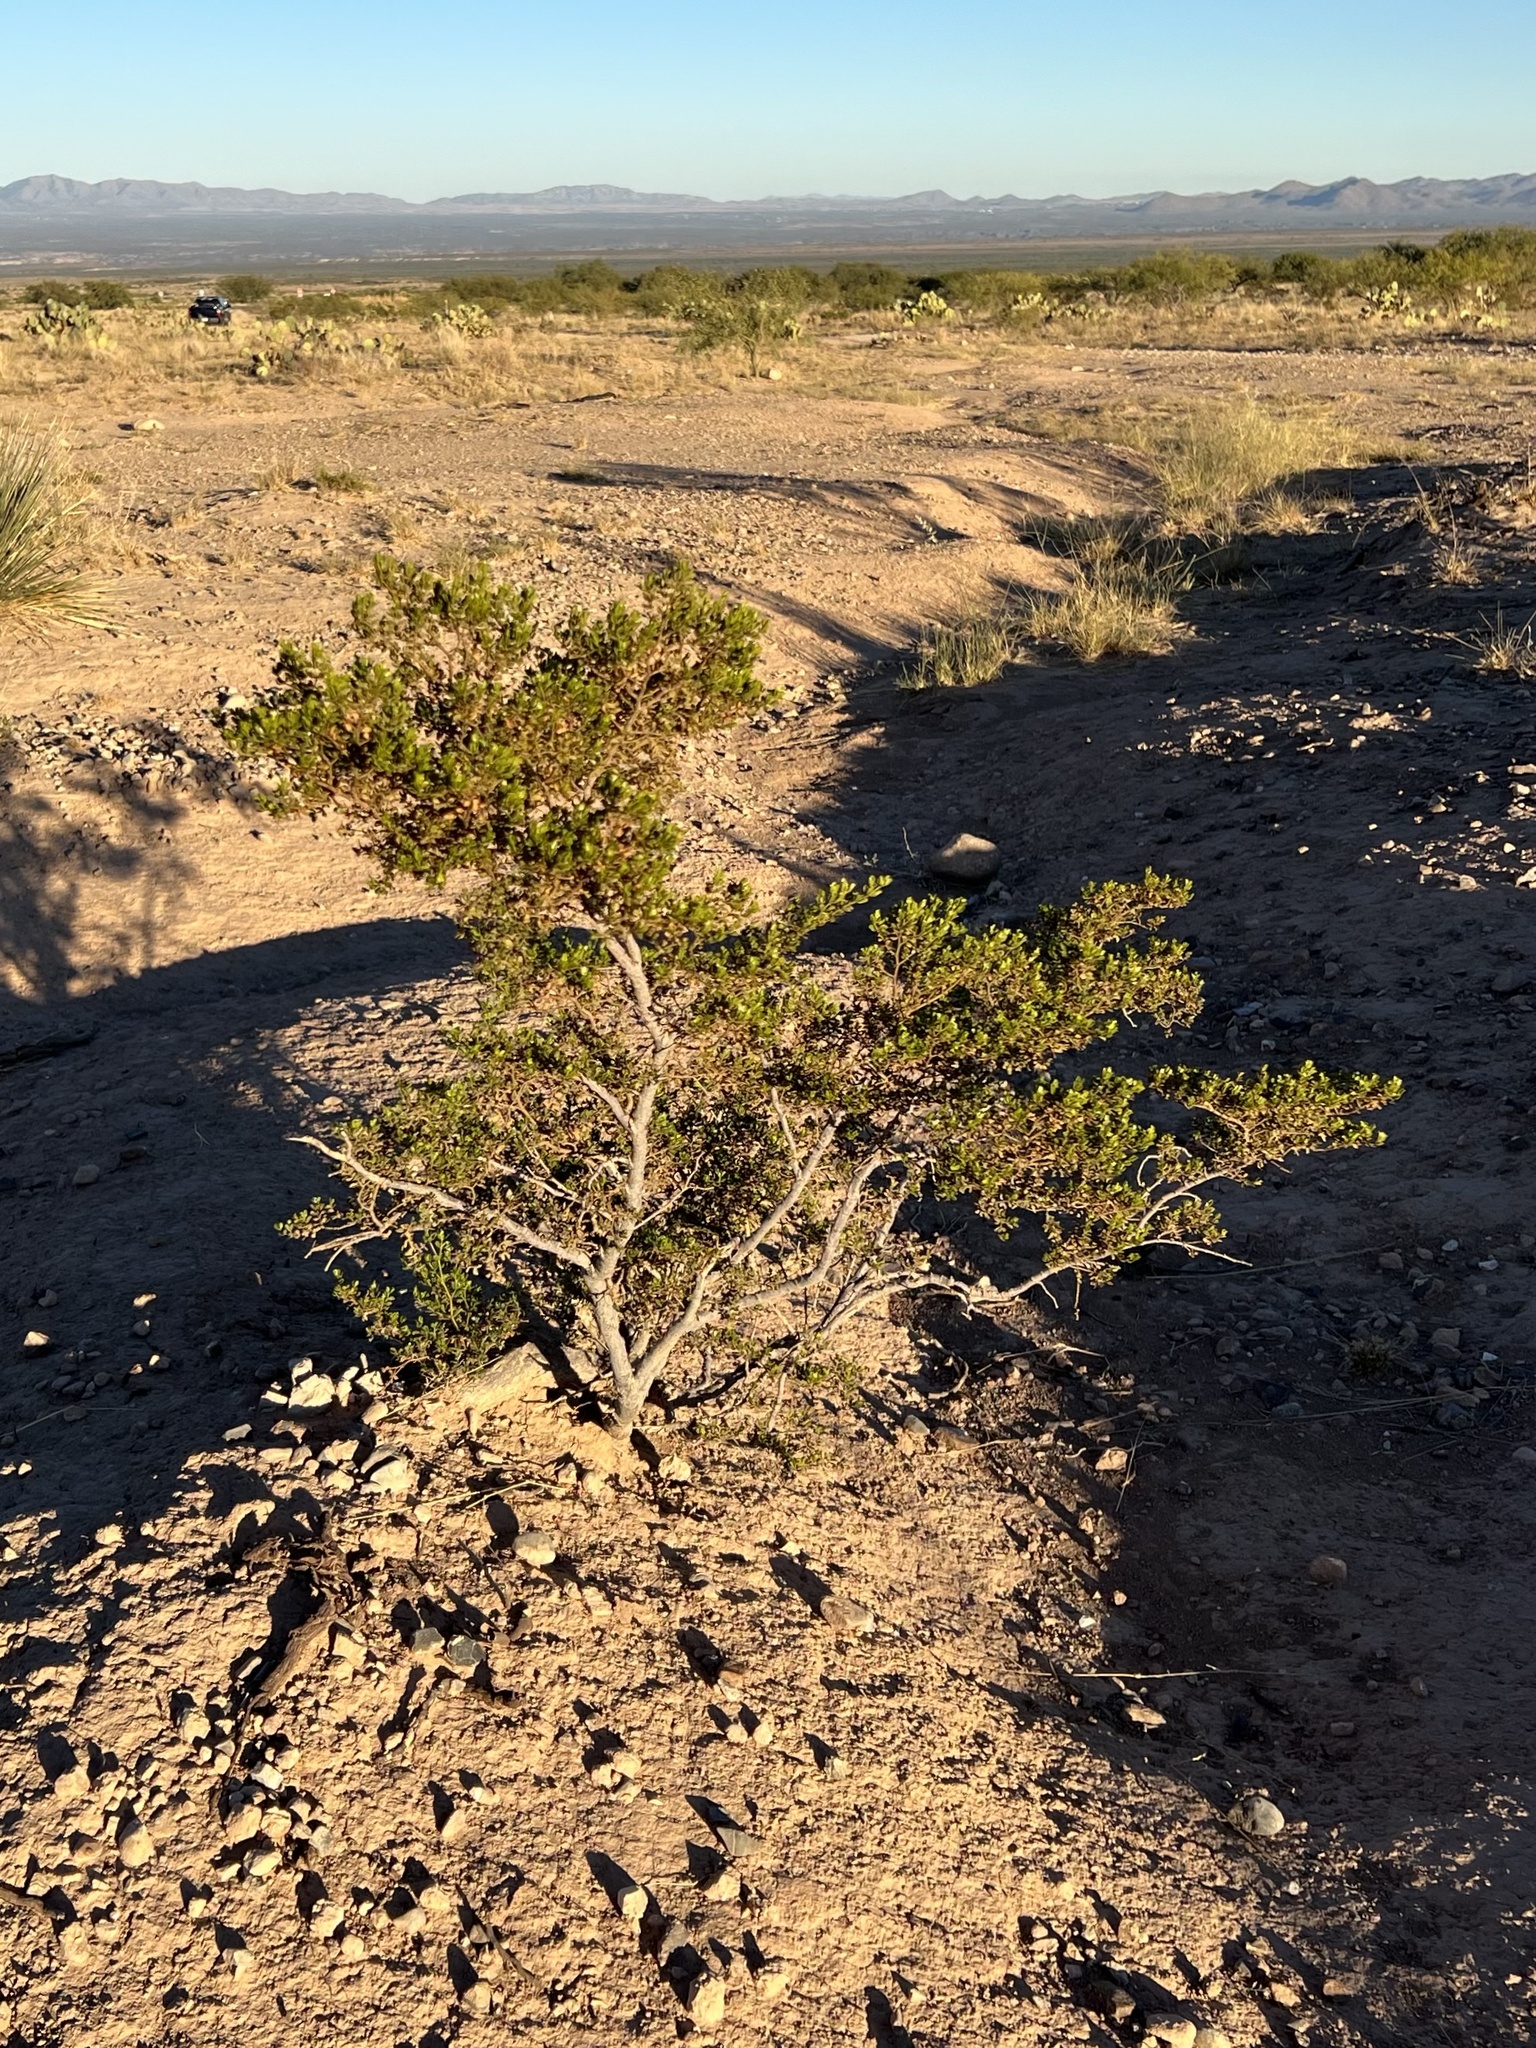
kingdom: Plantae
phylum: Tracheophyta
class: Magnoliopsida
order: Zygophyllales
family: Zygophyllaceae
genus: Larrea
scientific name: Larrea tridentata
